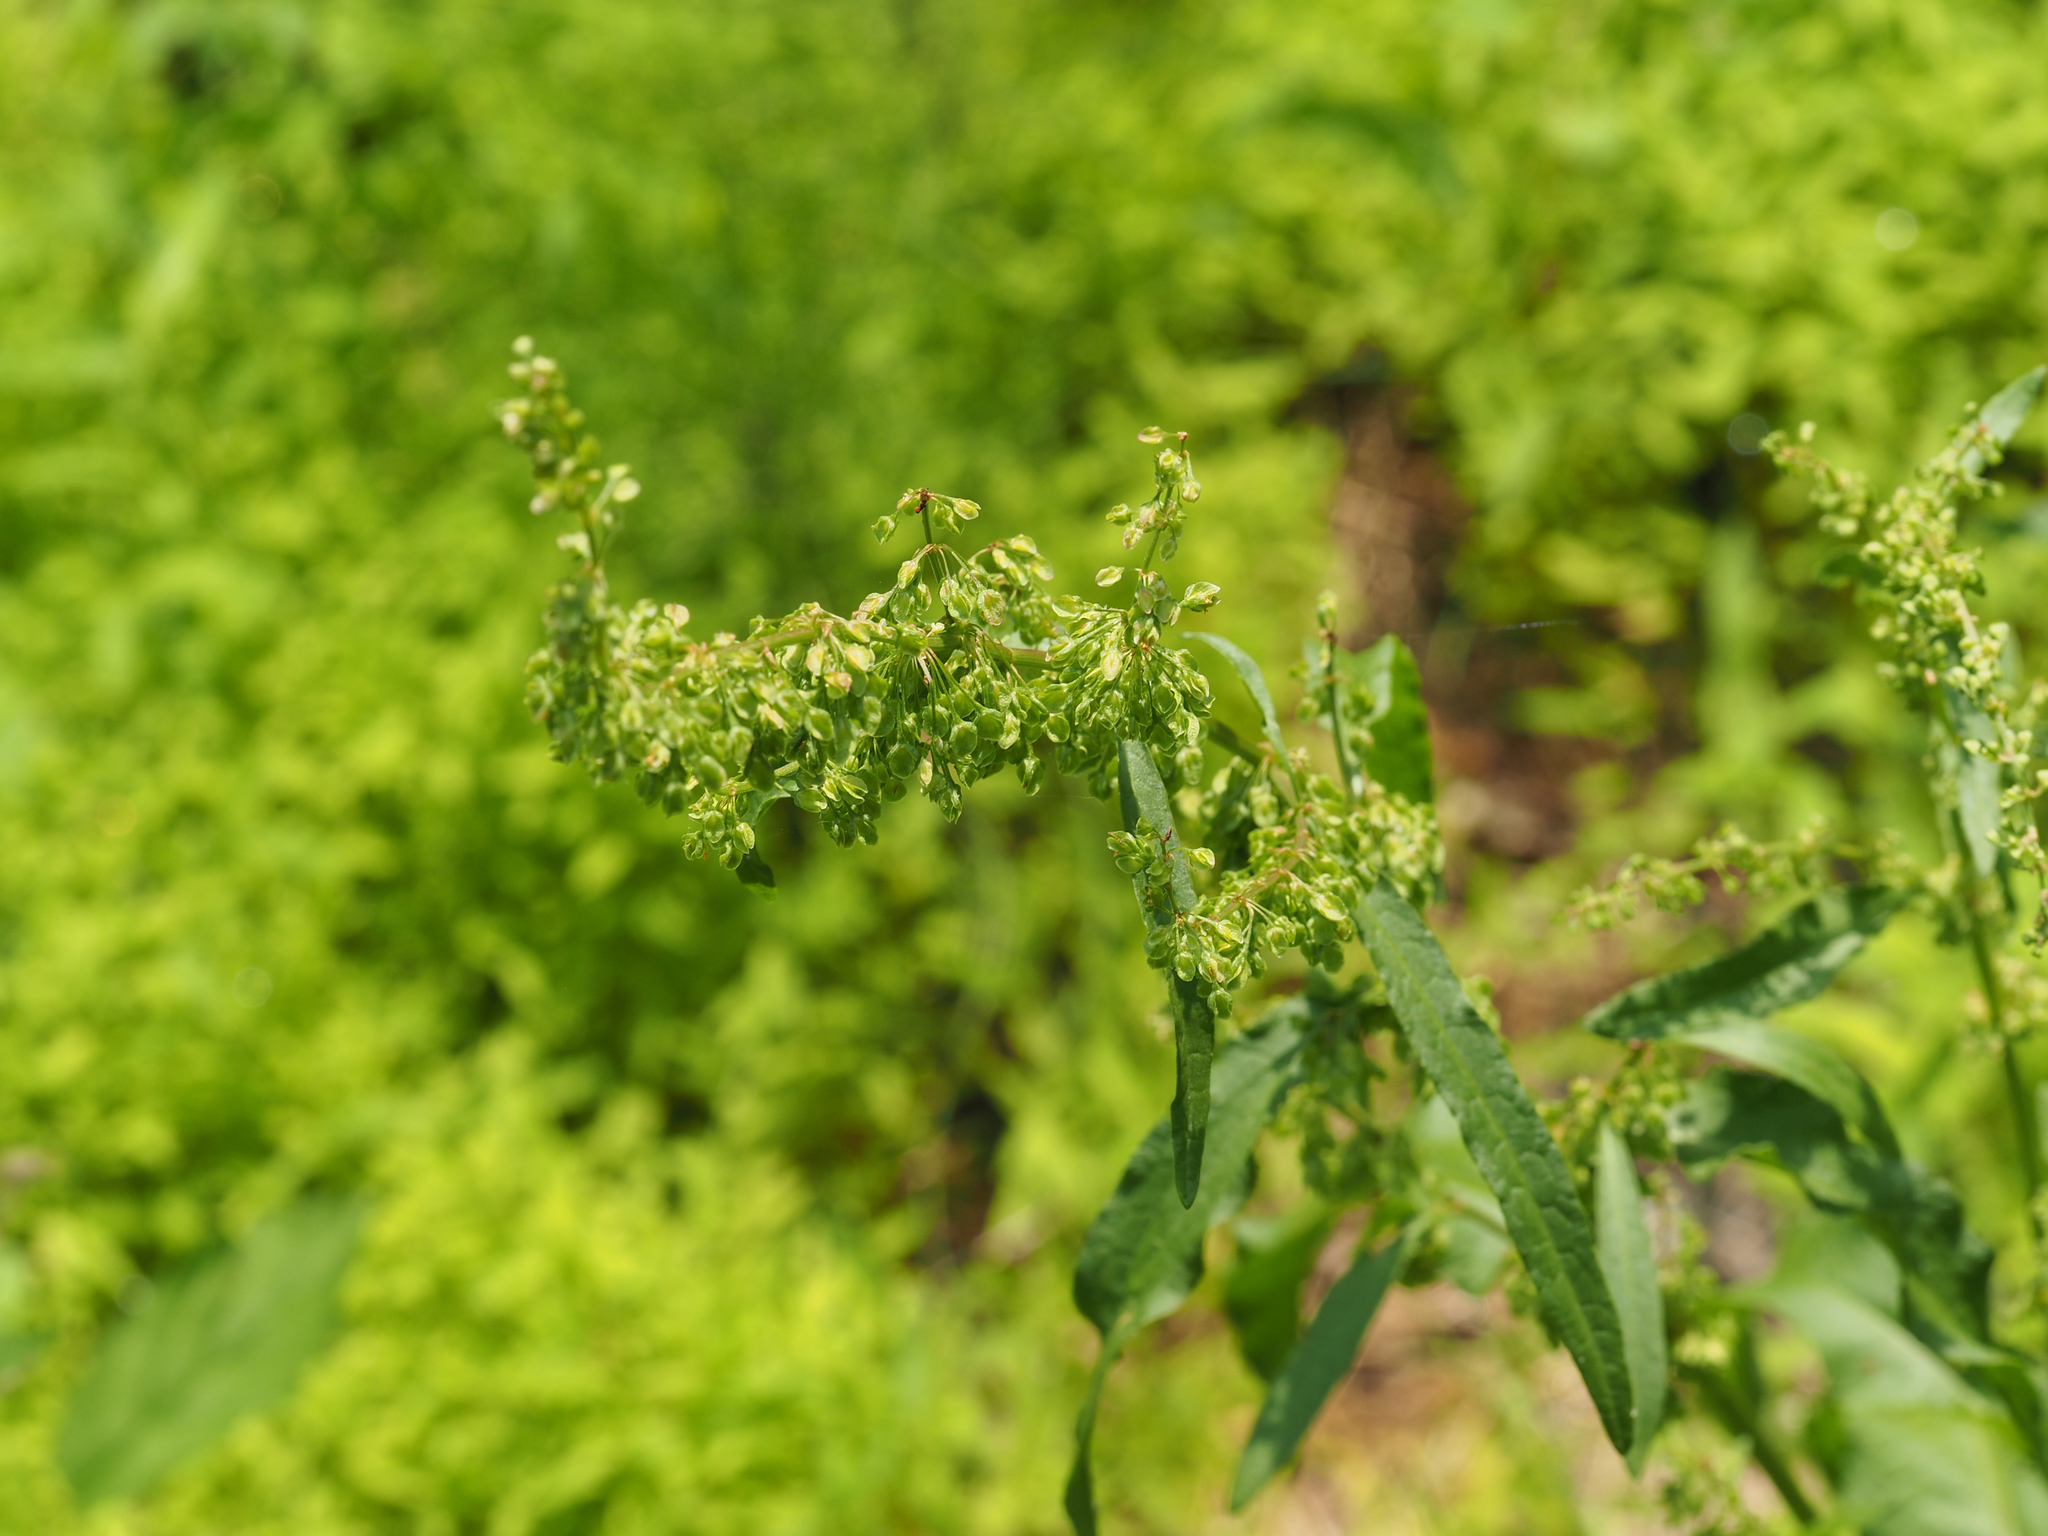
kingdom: Plantae
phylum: Tracheophyta
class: Magnoliopsida
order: Caryophyllales
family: Polygonaceae
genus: Rumex
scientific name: Rumex crispus
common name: Curled dock
